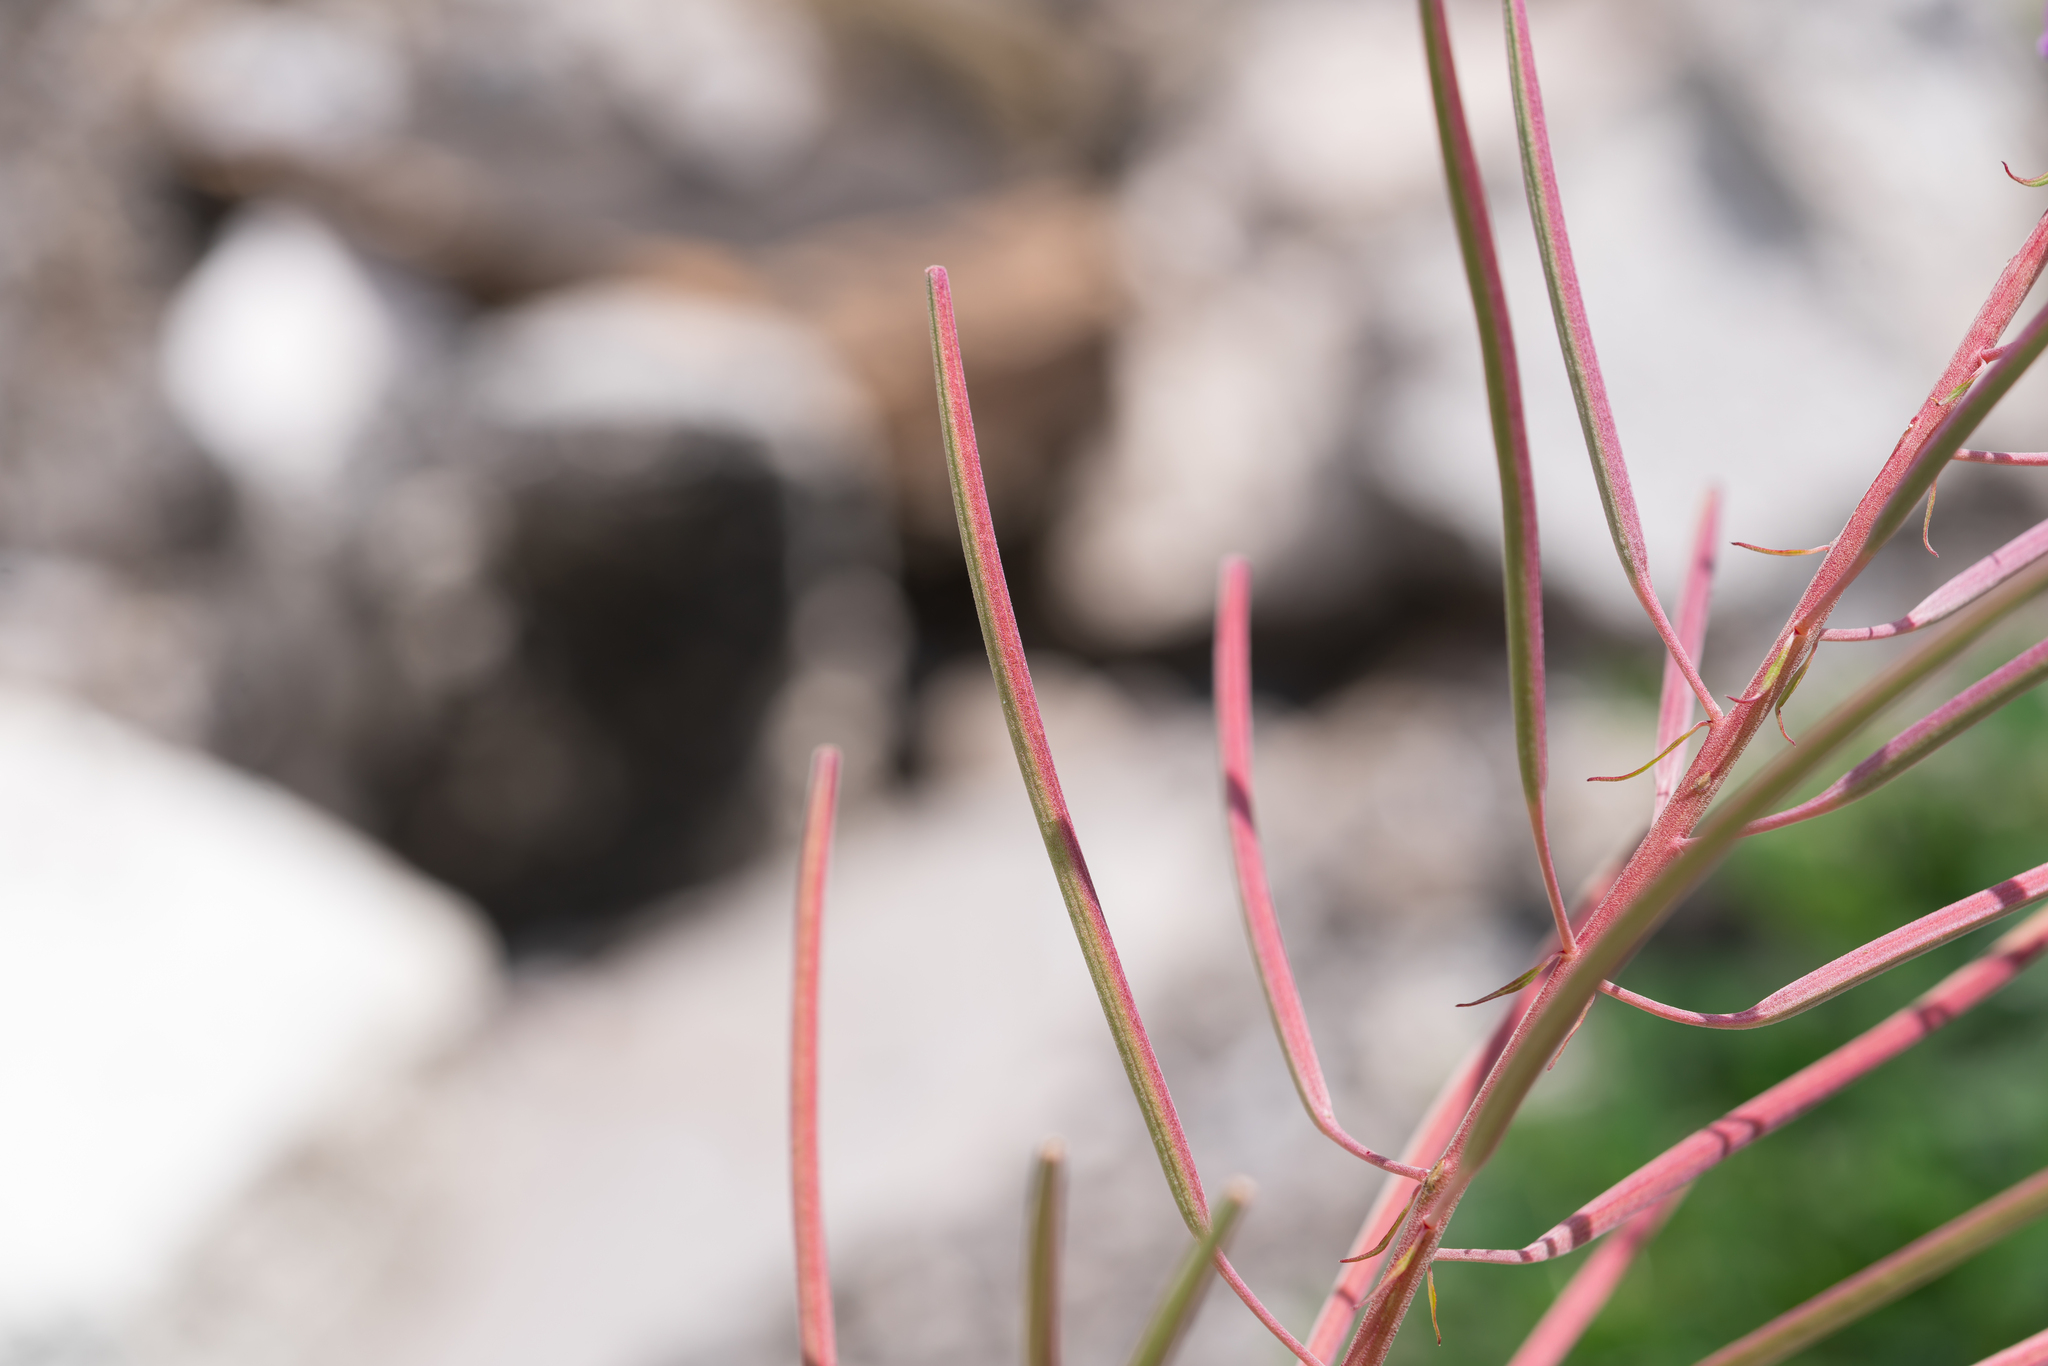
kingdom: Plantae
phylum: Tracheophyta
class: Magnoliopsida
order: Myrtales
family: Onagraceae
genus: Chamaenerion
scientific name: Chamaenerion angustifolium
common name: Fireweed
